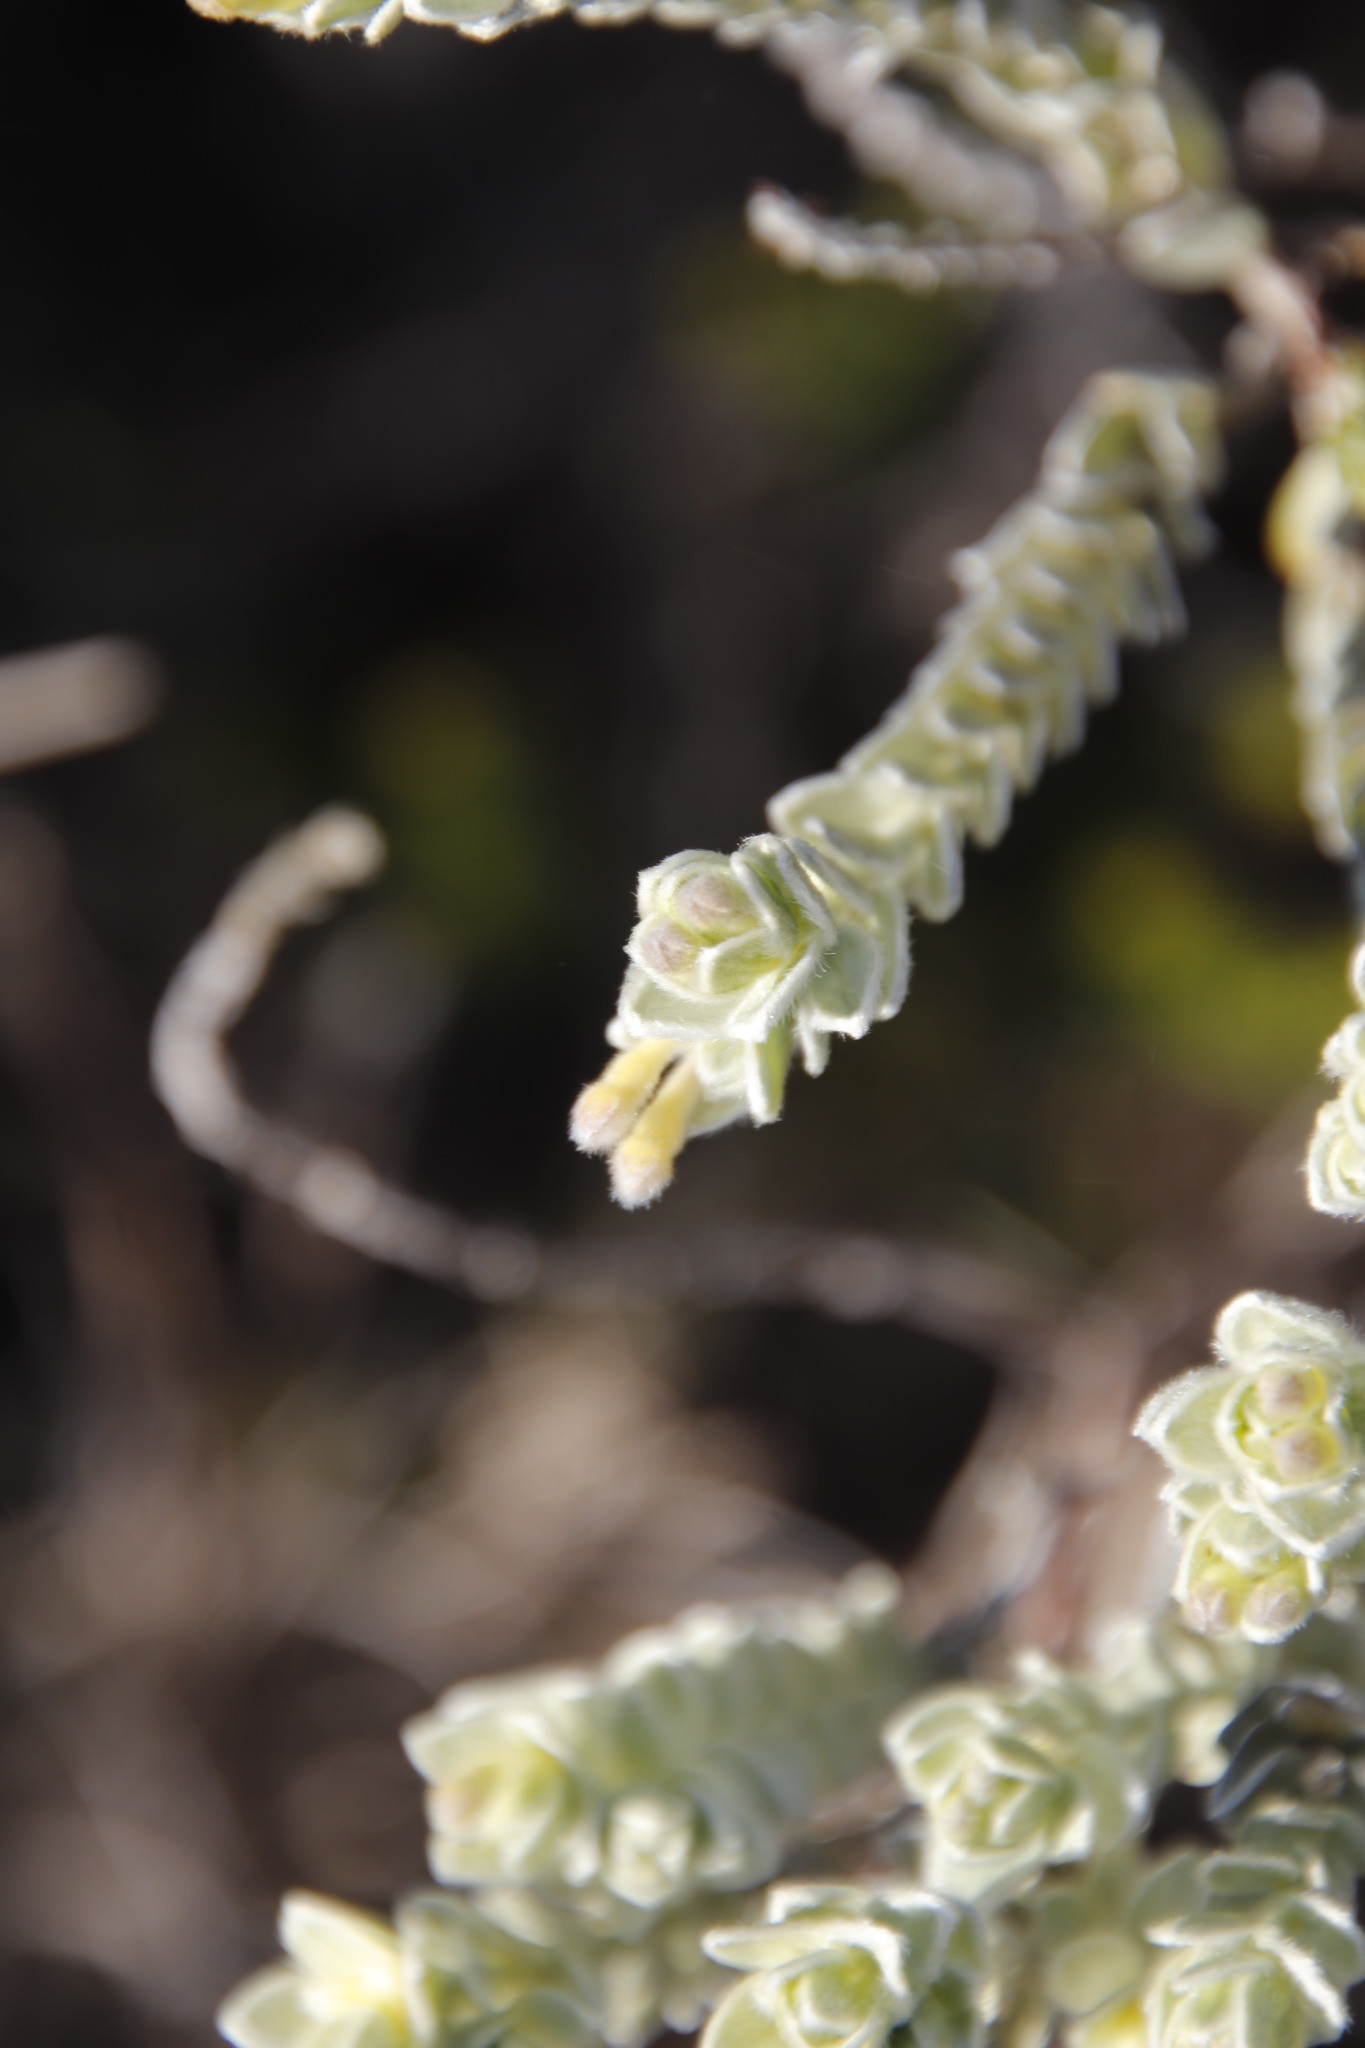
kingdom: Plantae
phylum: Tracheophyta
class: Magnoliopsida
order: Malvales
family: Thymelaeaceae
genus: Gnidia
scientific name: Gnidia imbricata
